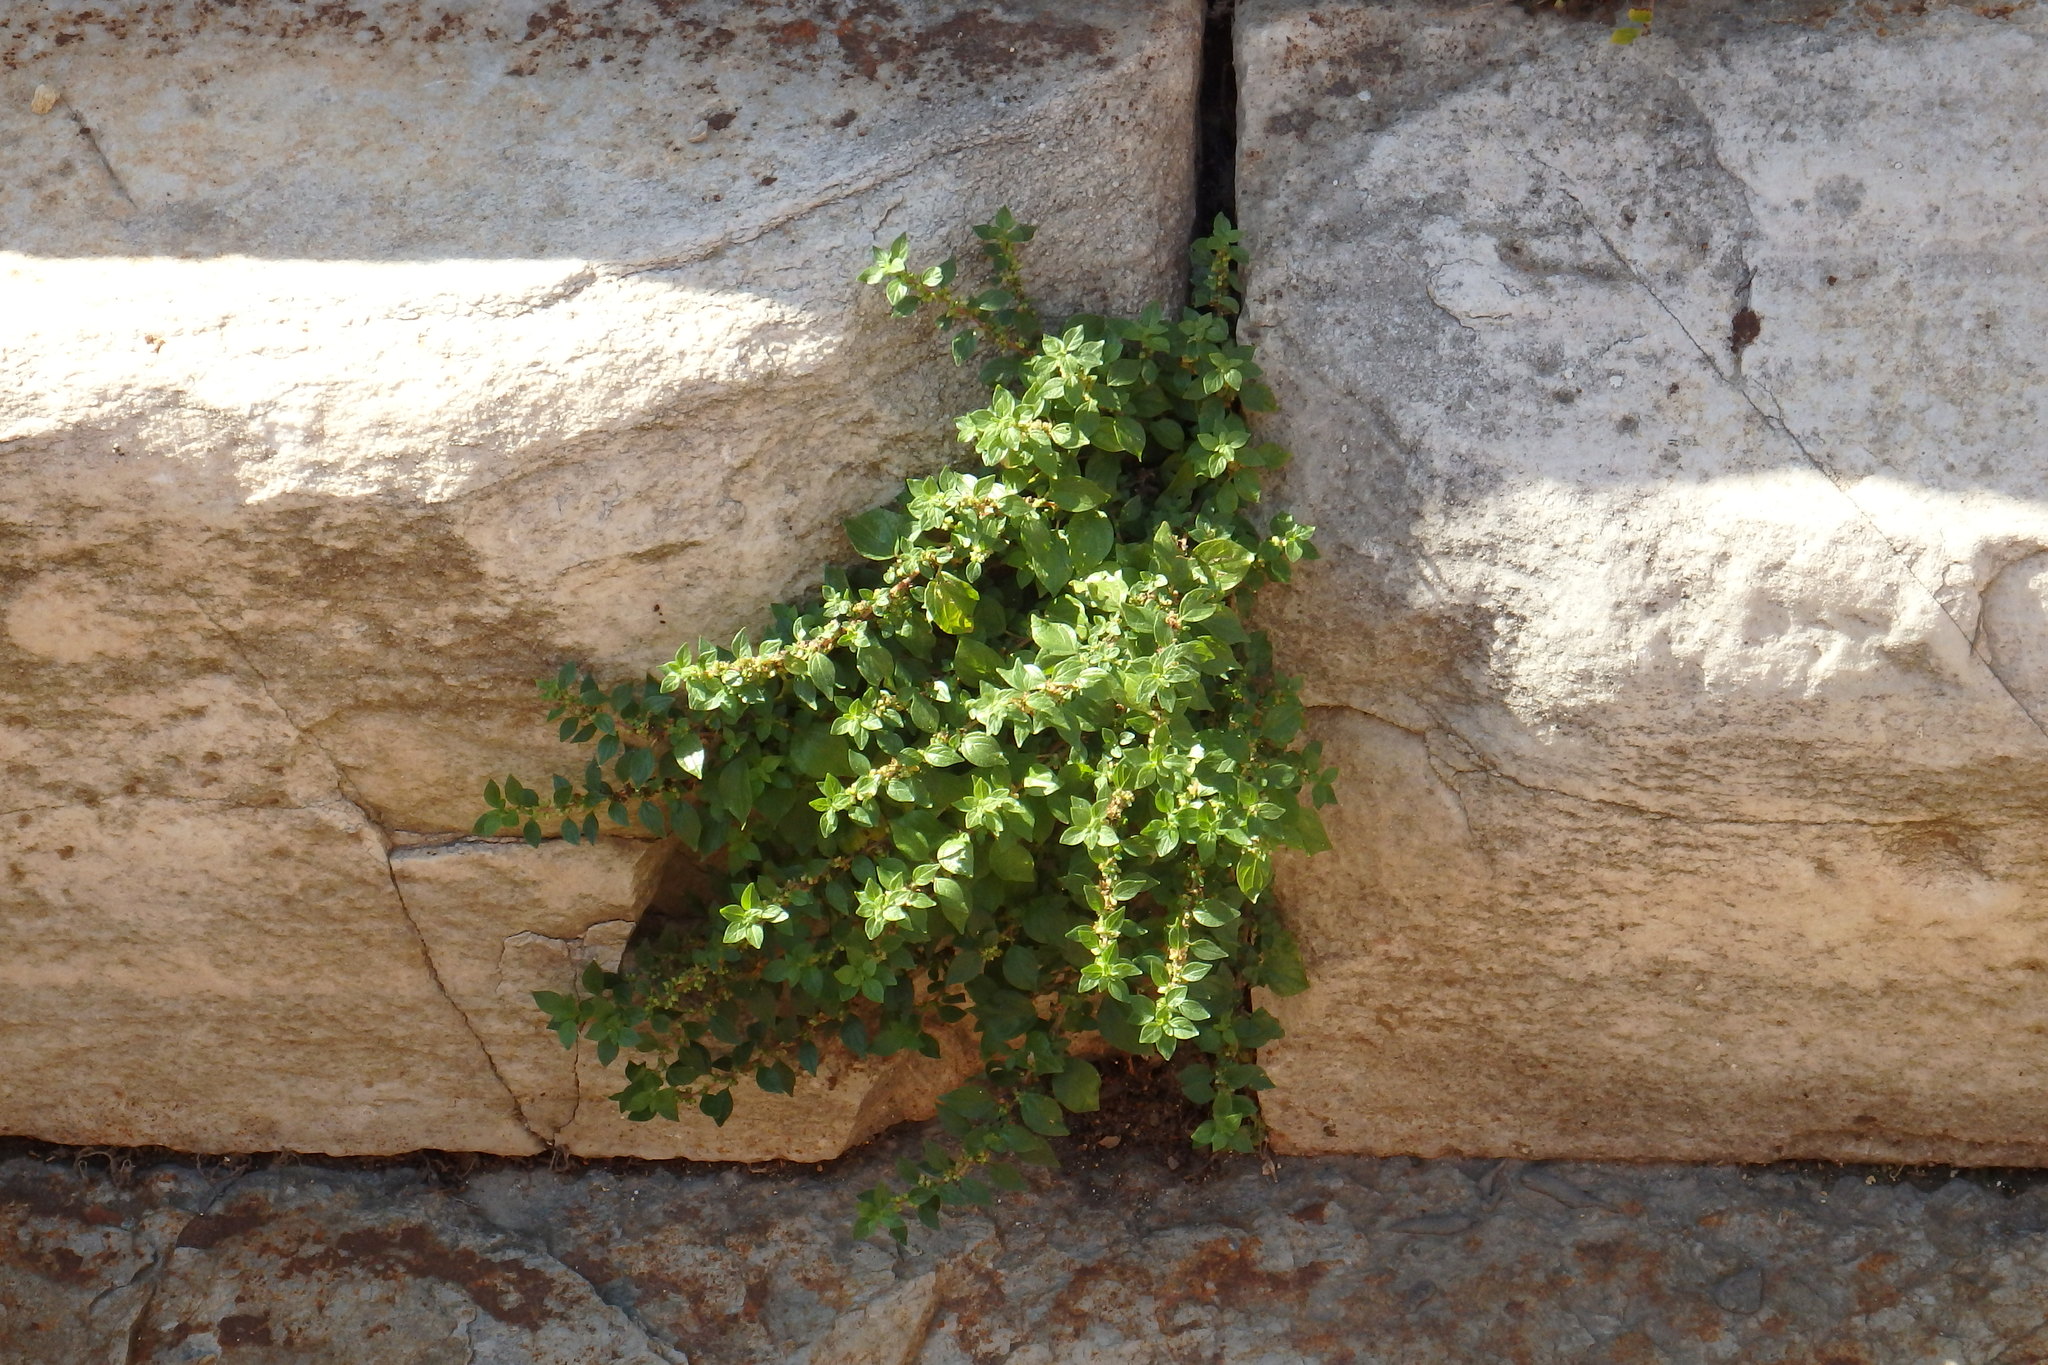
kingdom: Plantae
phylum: Tracheophyta
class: Magnoliopsida
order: Rosales
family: Urticaceae
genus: Parietaria
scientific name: Parietaria judaica
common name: Pellitory-of-the-wall
